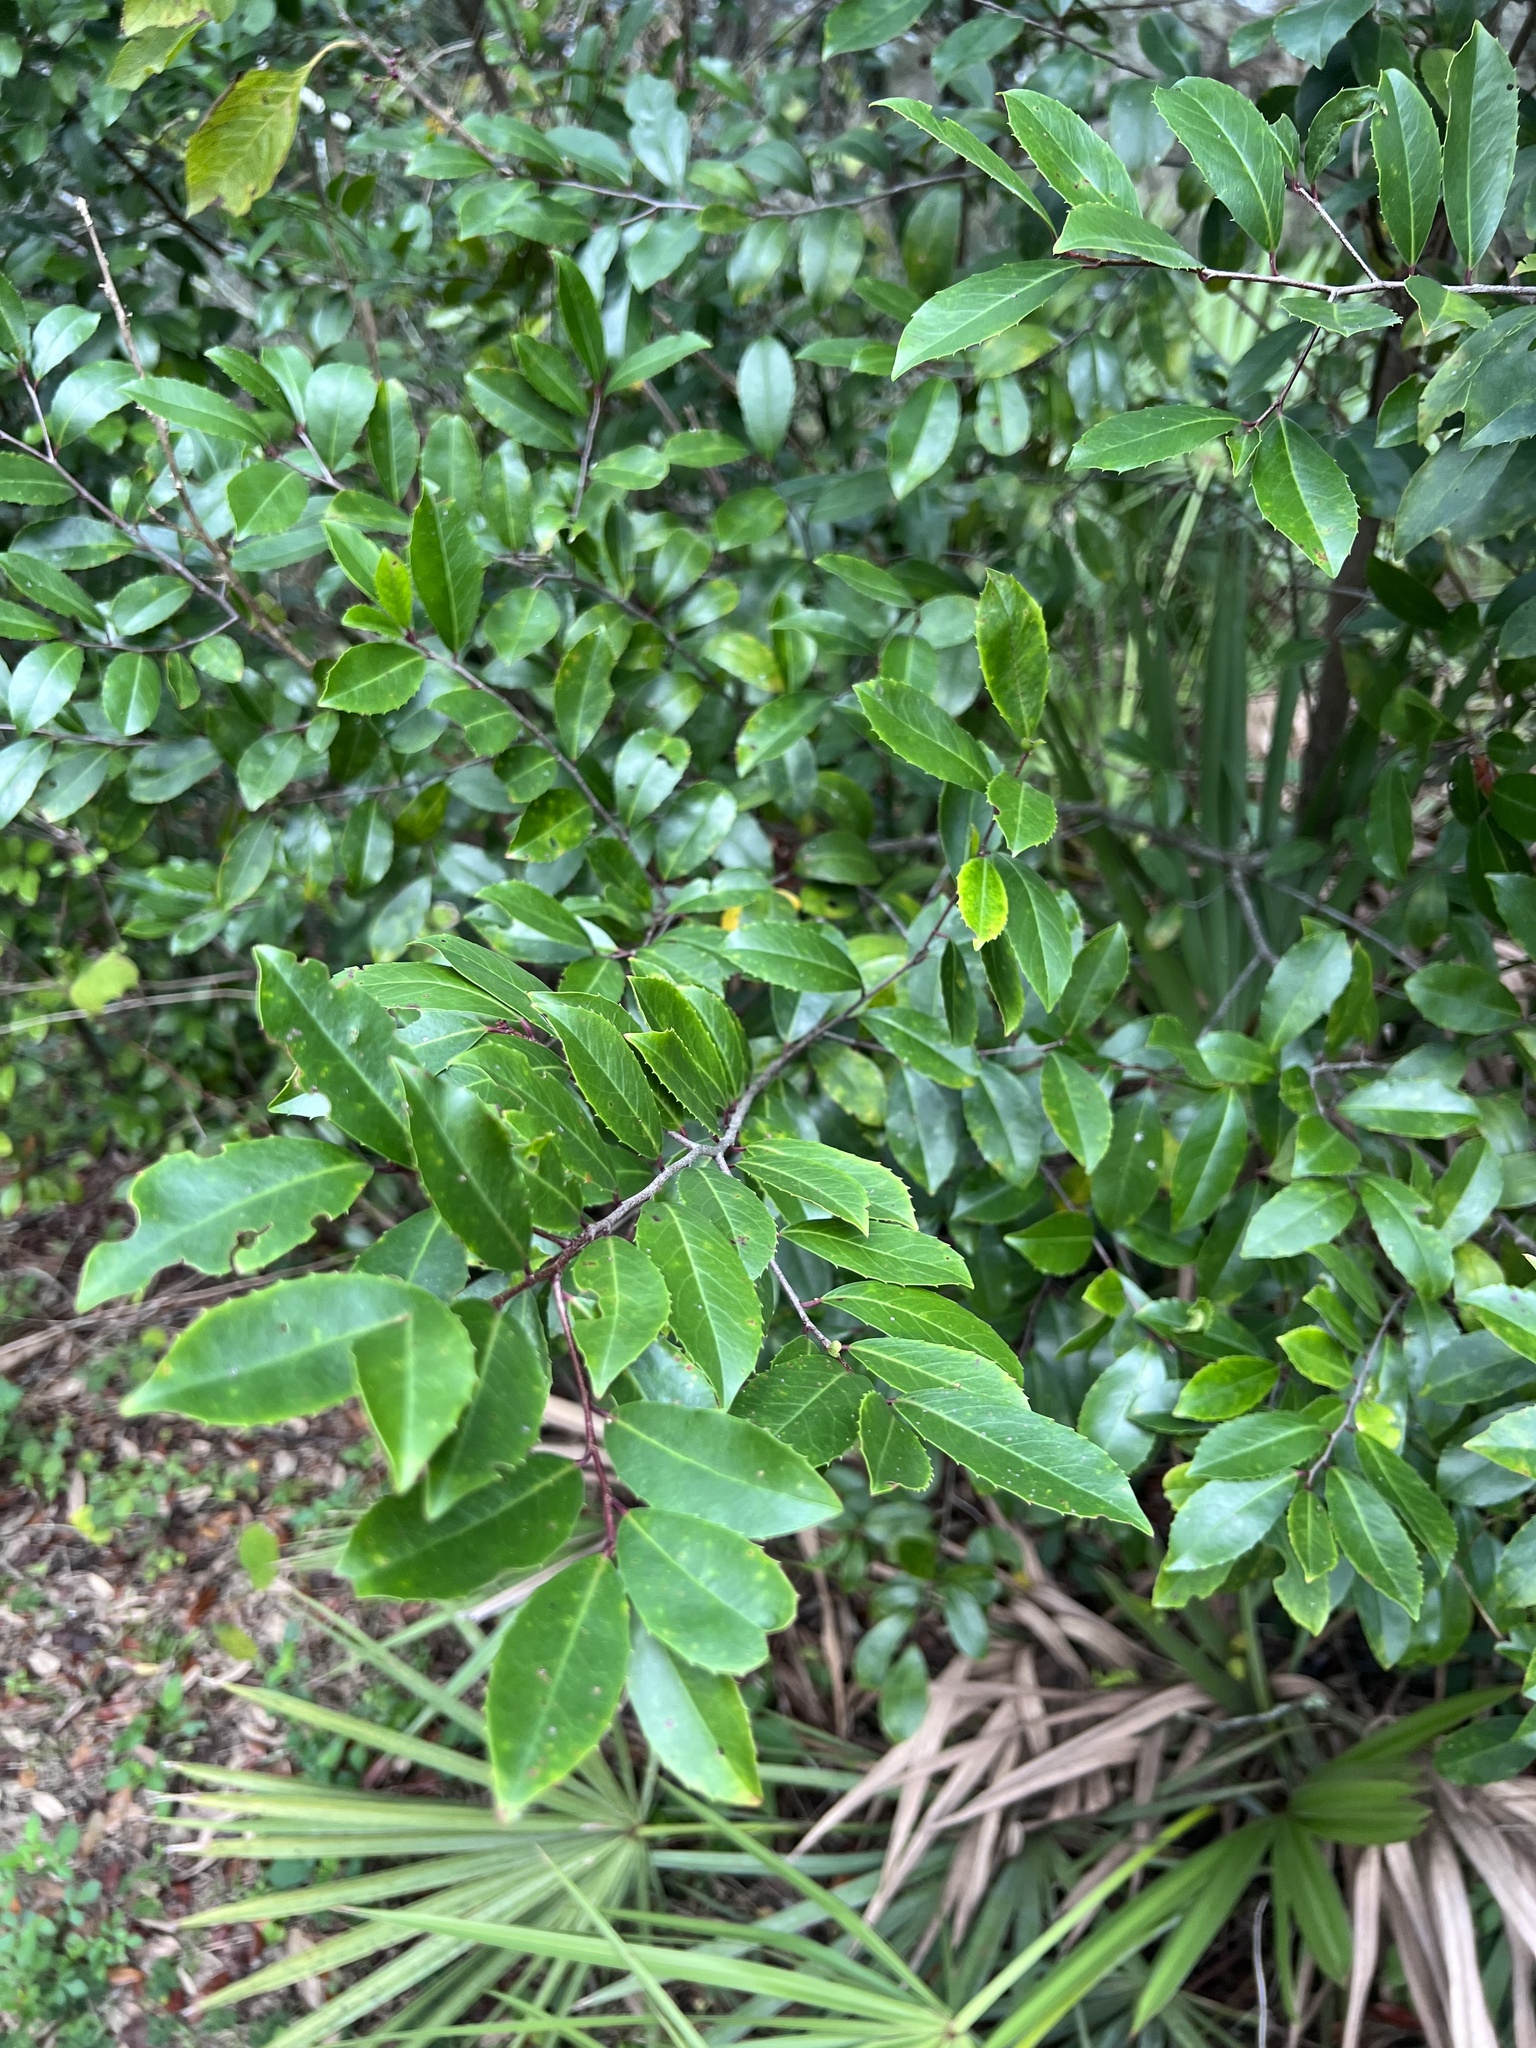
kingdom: Plantae
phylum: Tracheophyta
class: Magnoliopsida
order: Rosales
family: Rosaceae
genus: Prunus
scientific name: Prunus caroliniana
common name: Carolina laurel cherry
